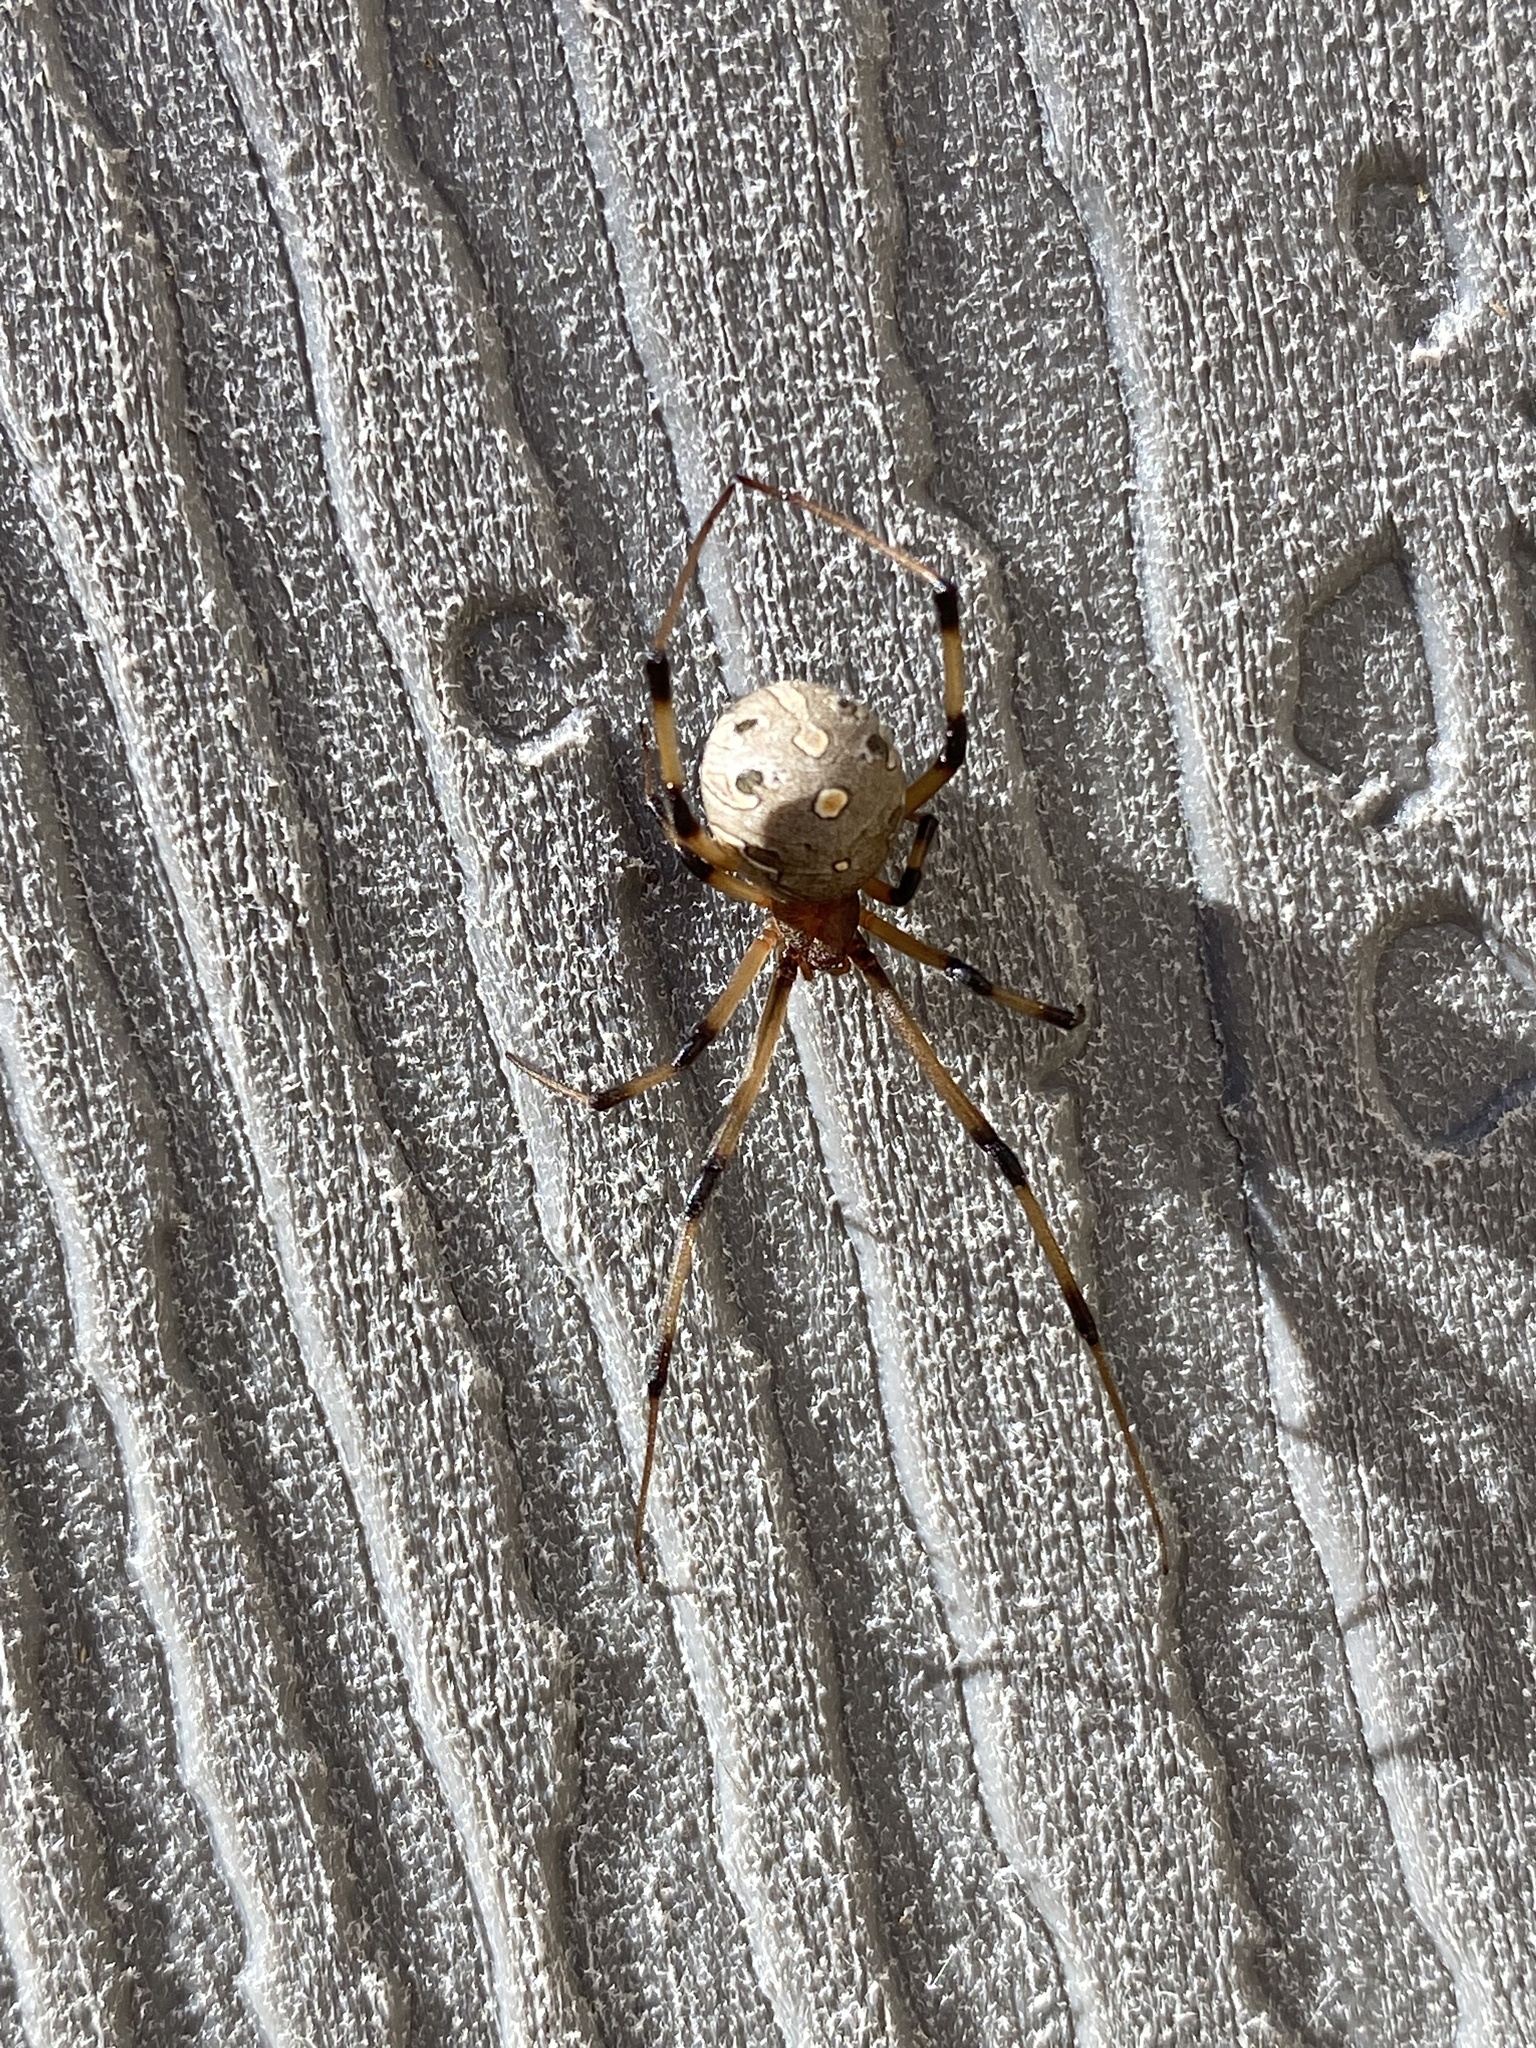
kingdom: Animalia
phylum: Arthropoda
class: Arachnida
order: Araneae
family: Theridiidae
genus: Latrodectus
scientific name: Latrodectus geometricus
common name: Brown widow spider
